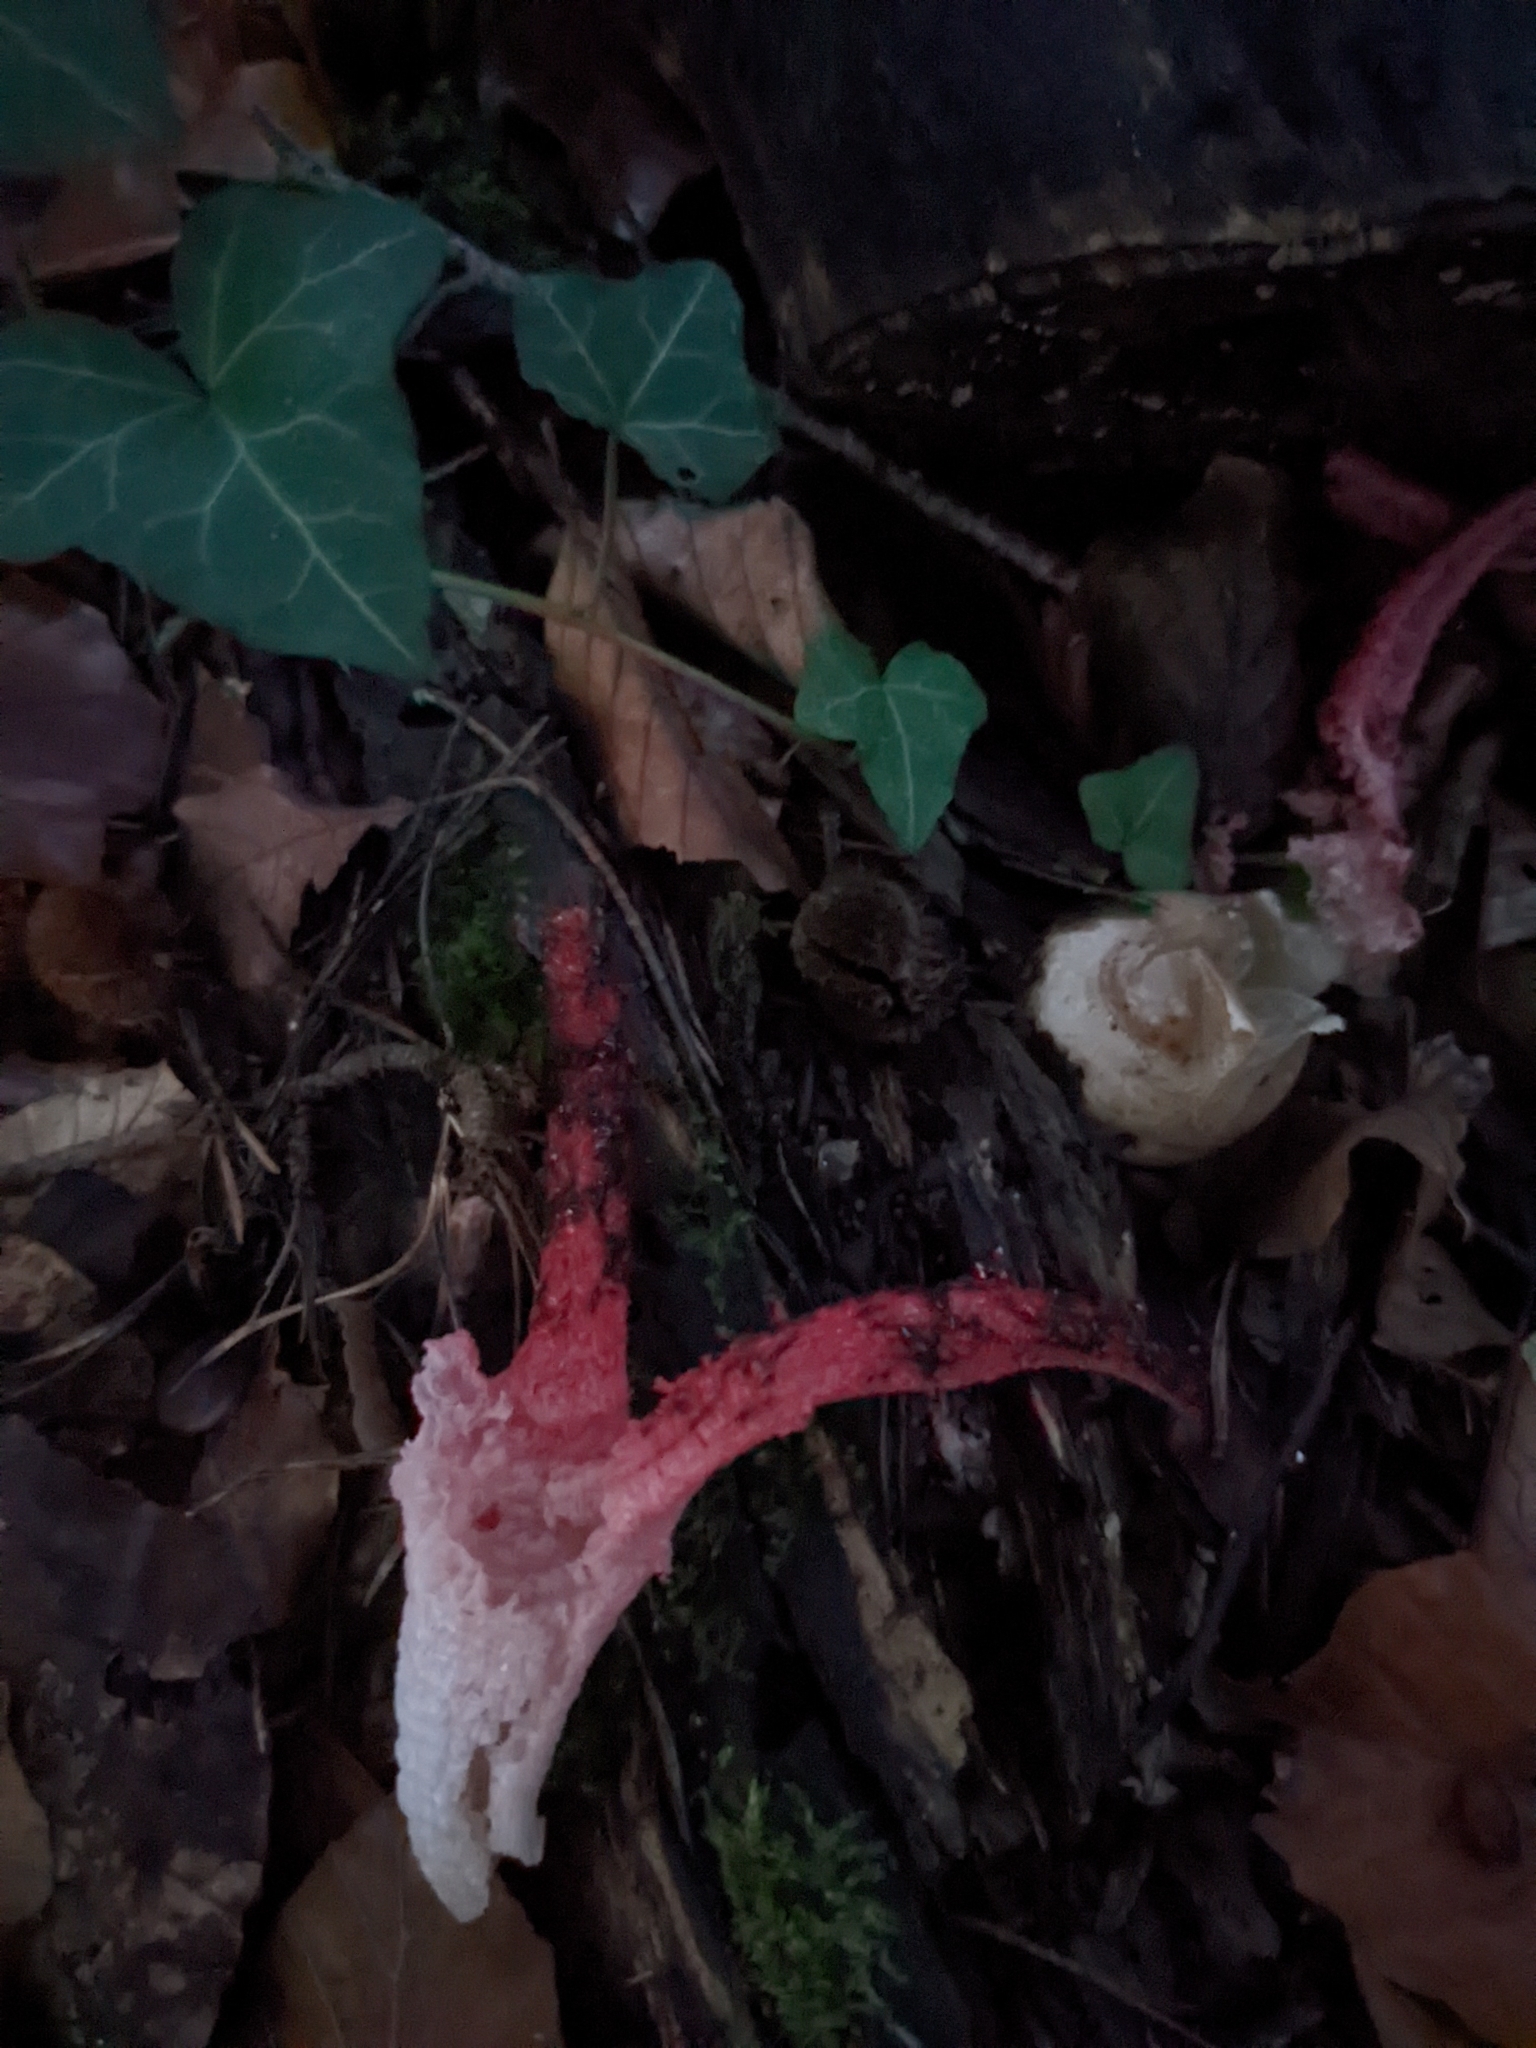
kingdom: Fungi
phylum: Basidiomycota
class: Agaricomycetes
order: Phallales
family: Phallaceae
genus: Clathrus
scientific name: Clathrus archeri
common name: Devil's fingers
